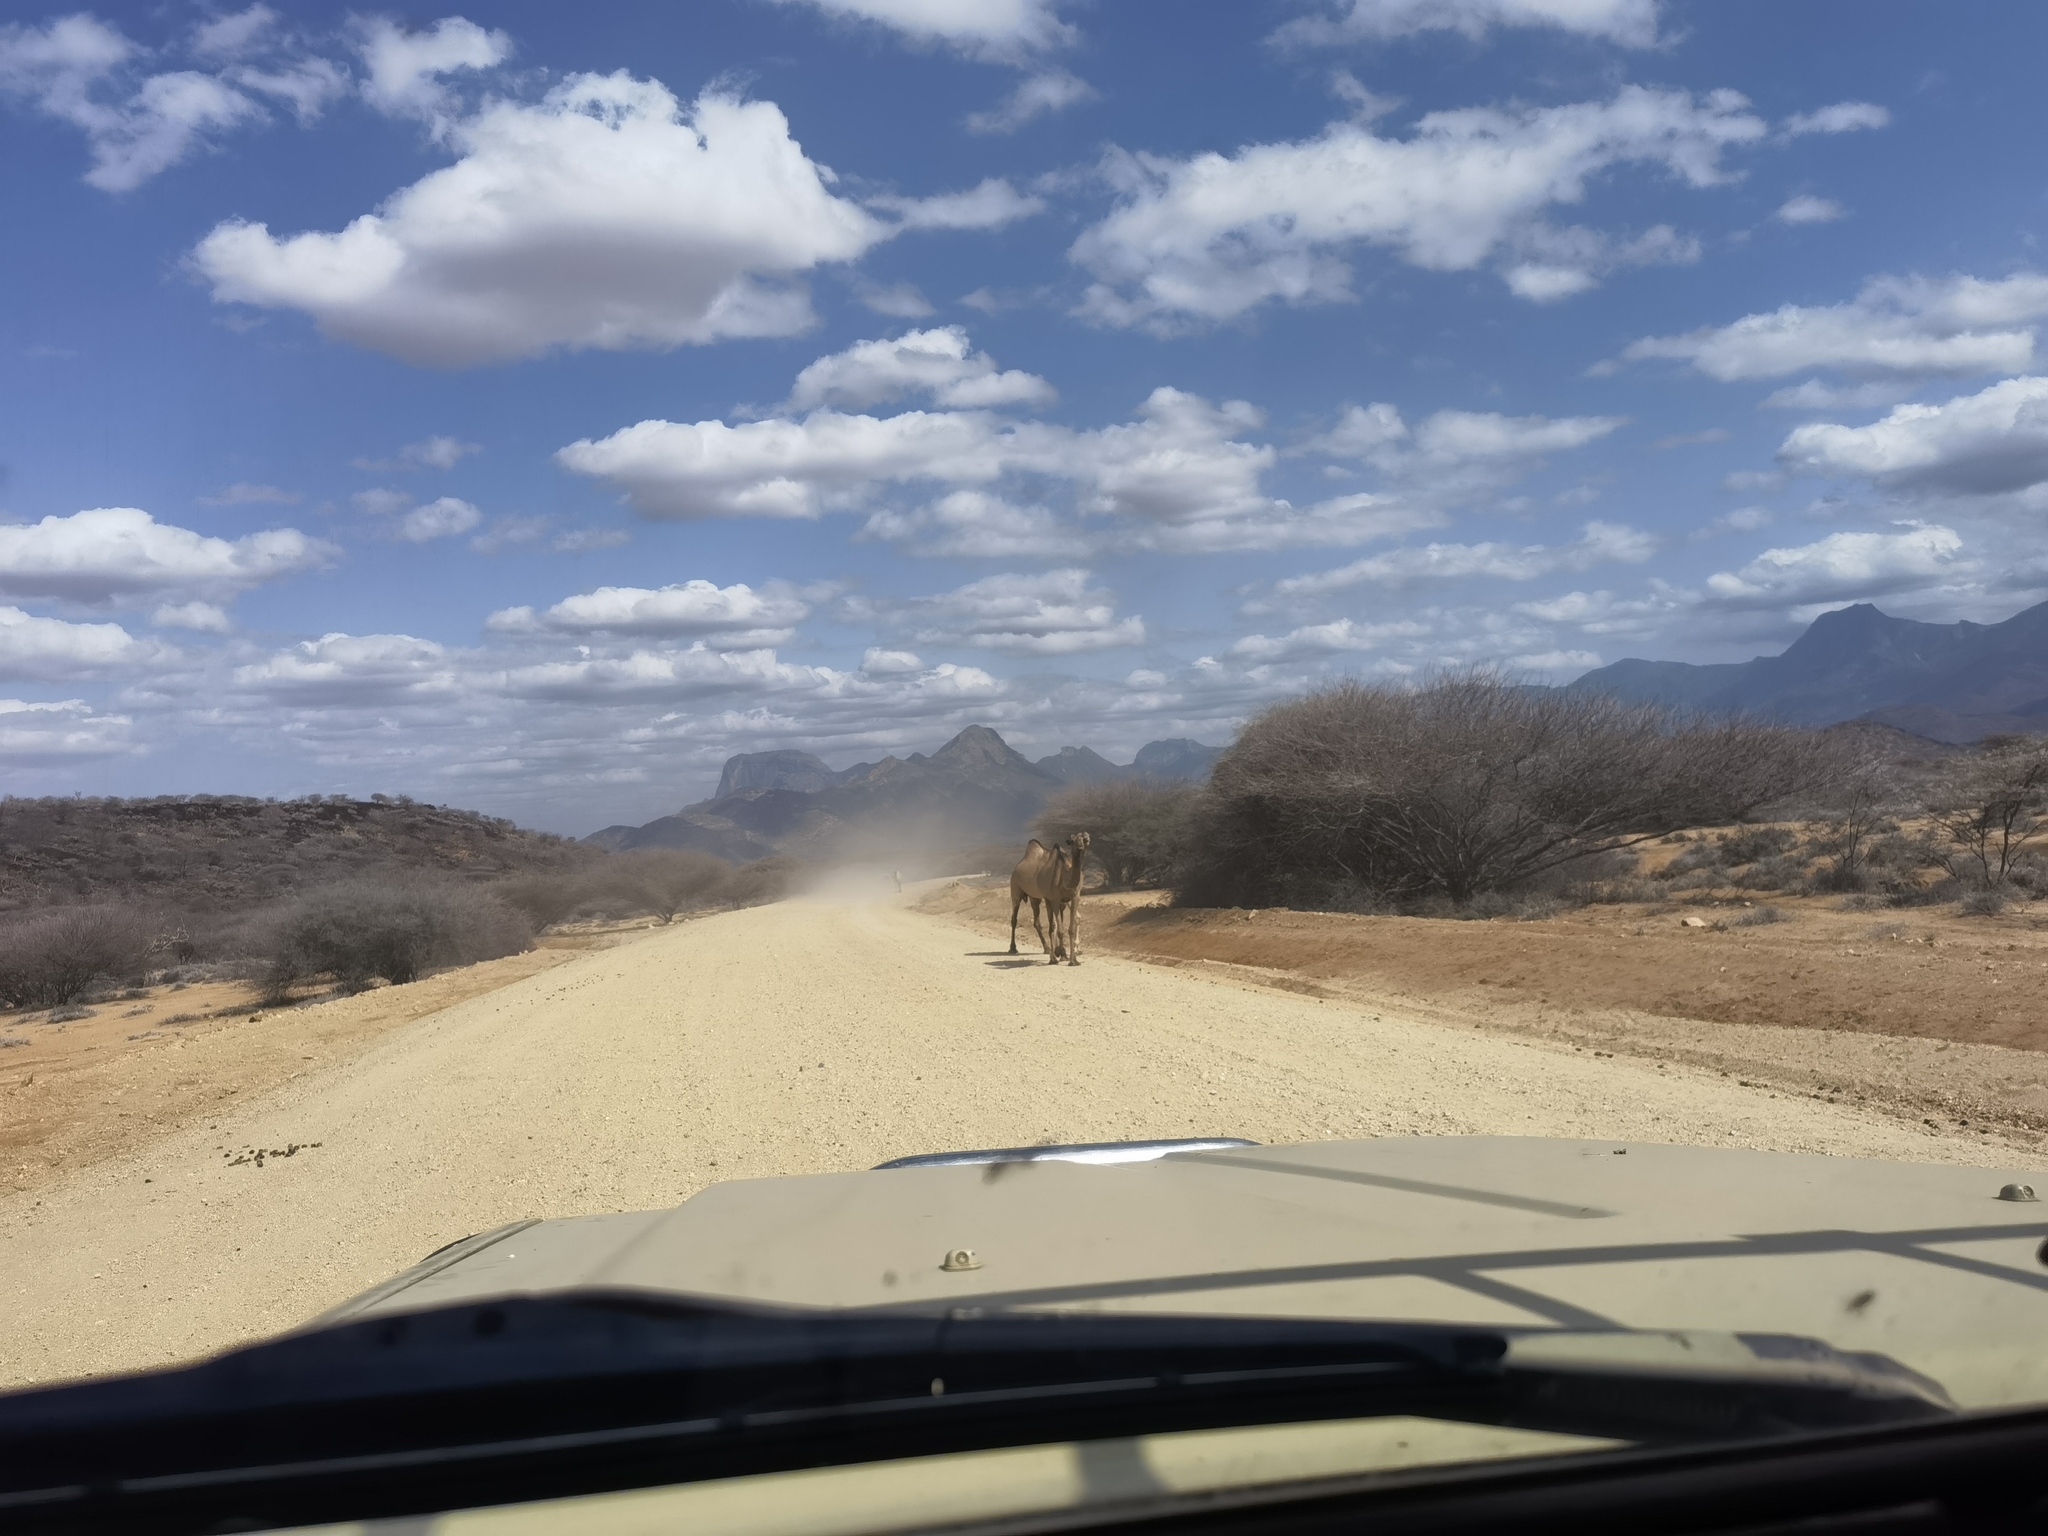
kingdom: Animalia
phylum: Chordata
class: Mammalia
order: Artiodactyla
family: Camelidae
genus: Camelus
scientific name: Camelus dromedarius
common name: One-humped camel
